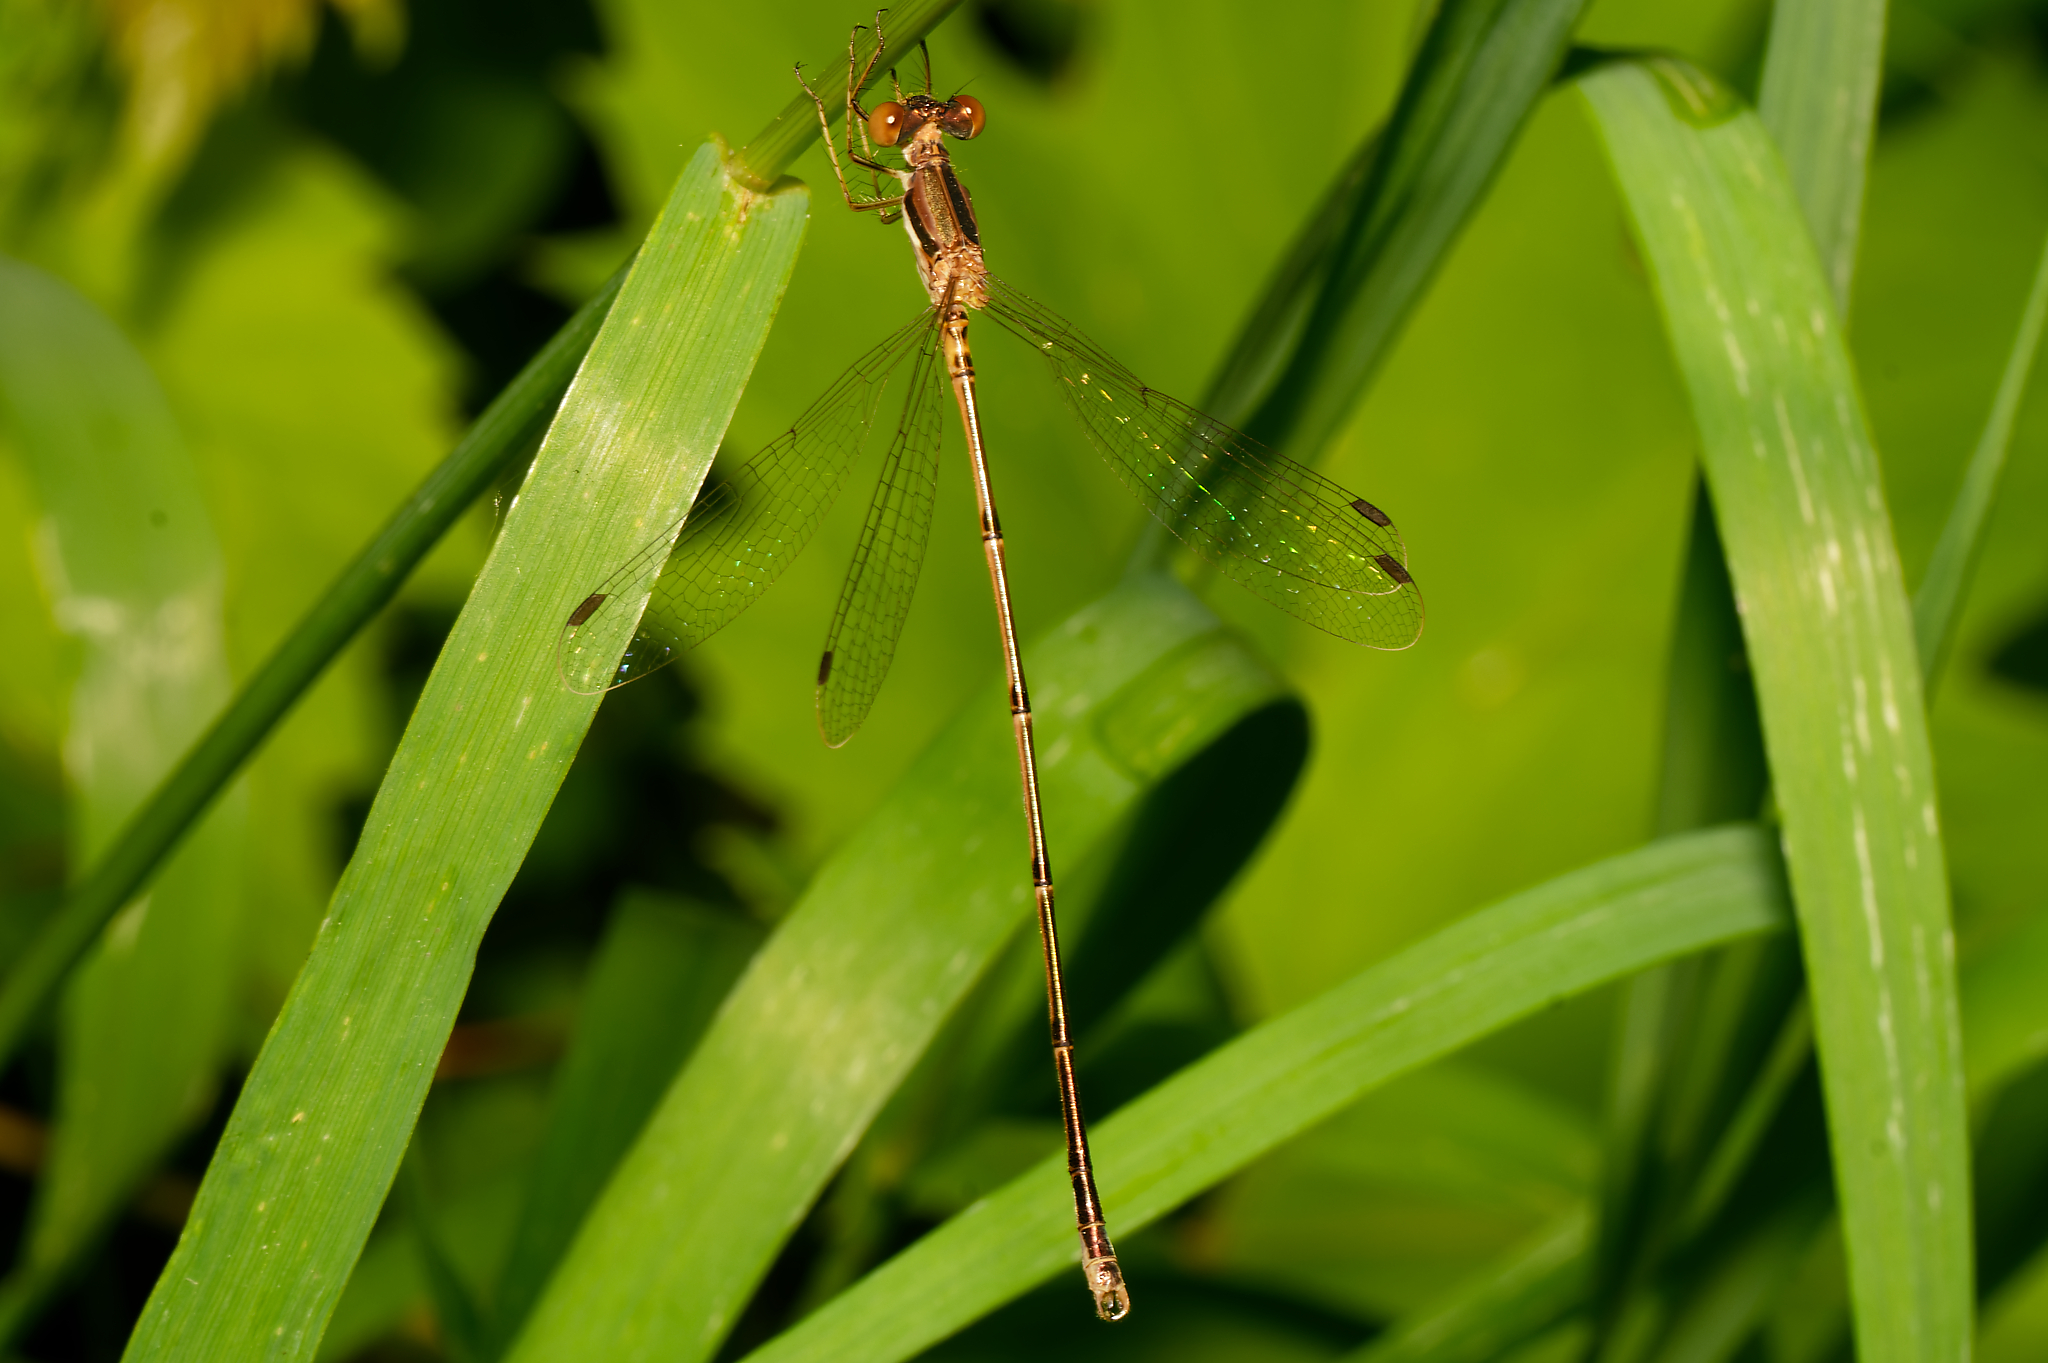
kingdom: Animalia
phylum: Arthropoda
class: Insecta
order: Odonata
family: Lestidae
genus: Lestes
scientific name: Lestes rectangularis
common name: Slender spreadwing
